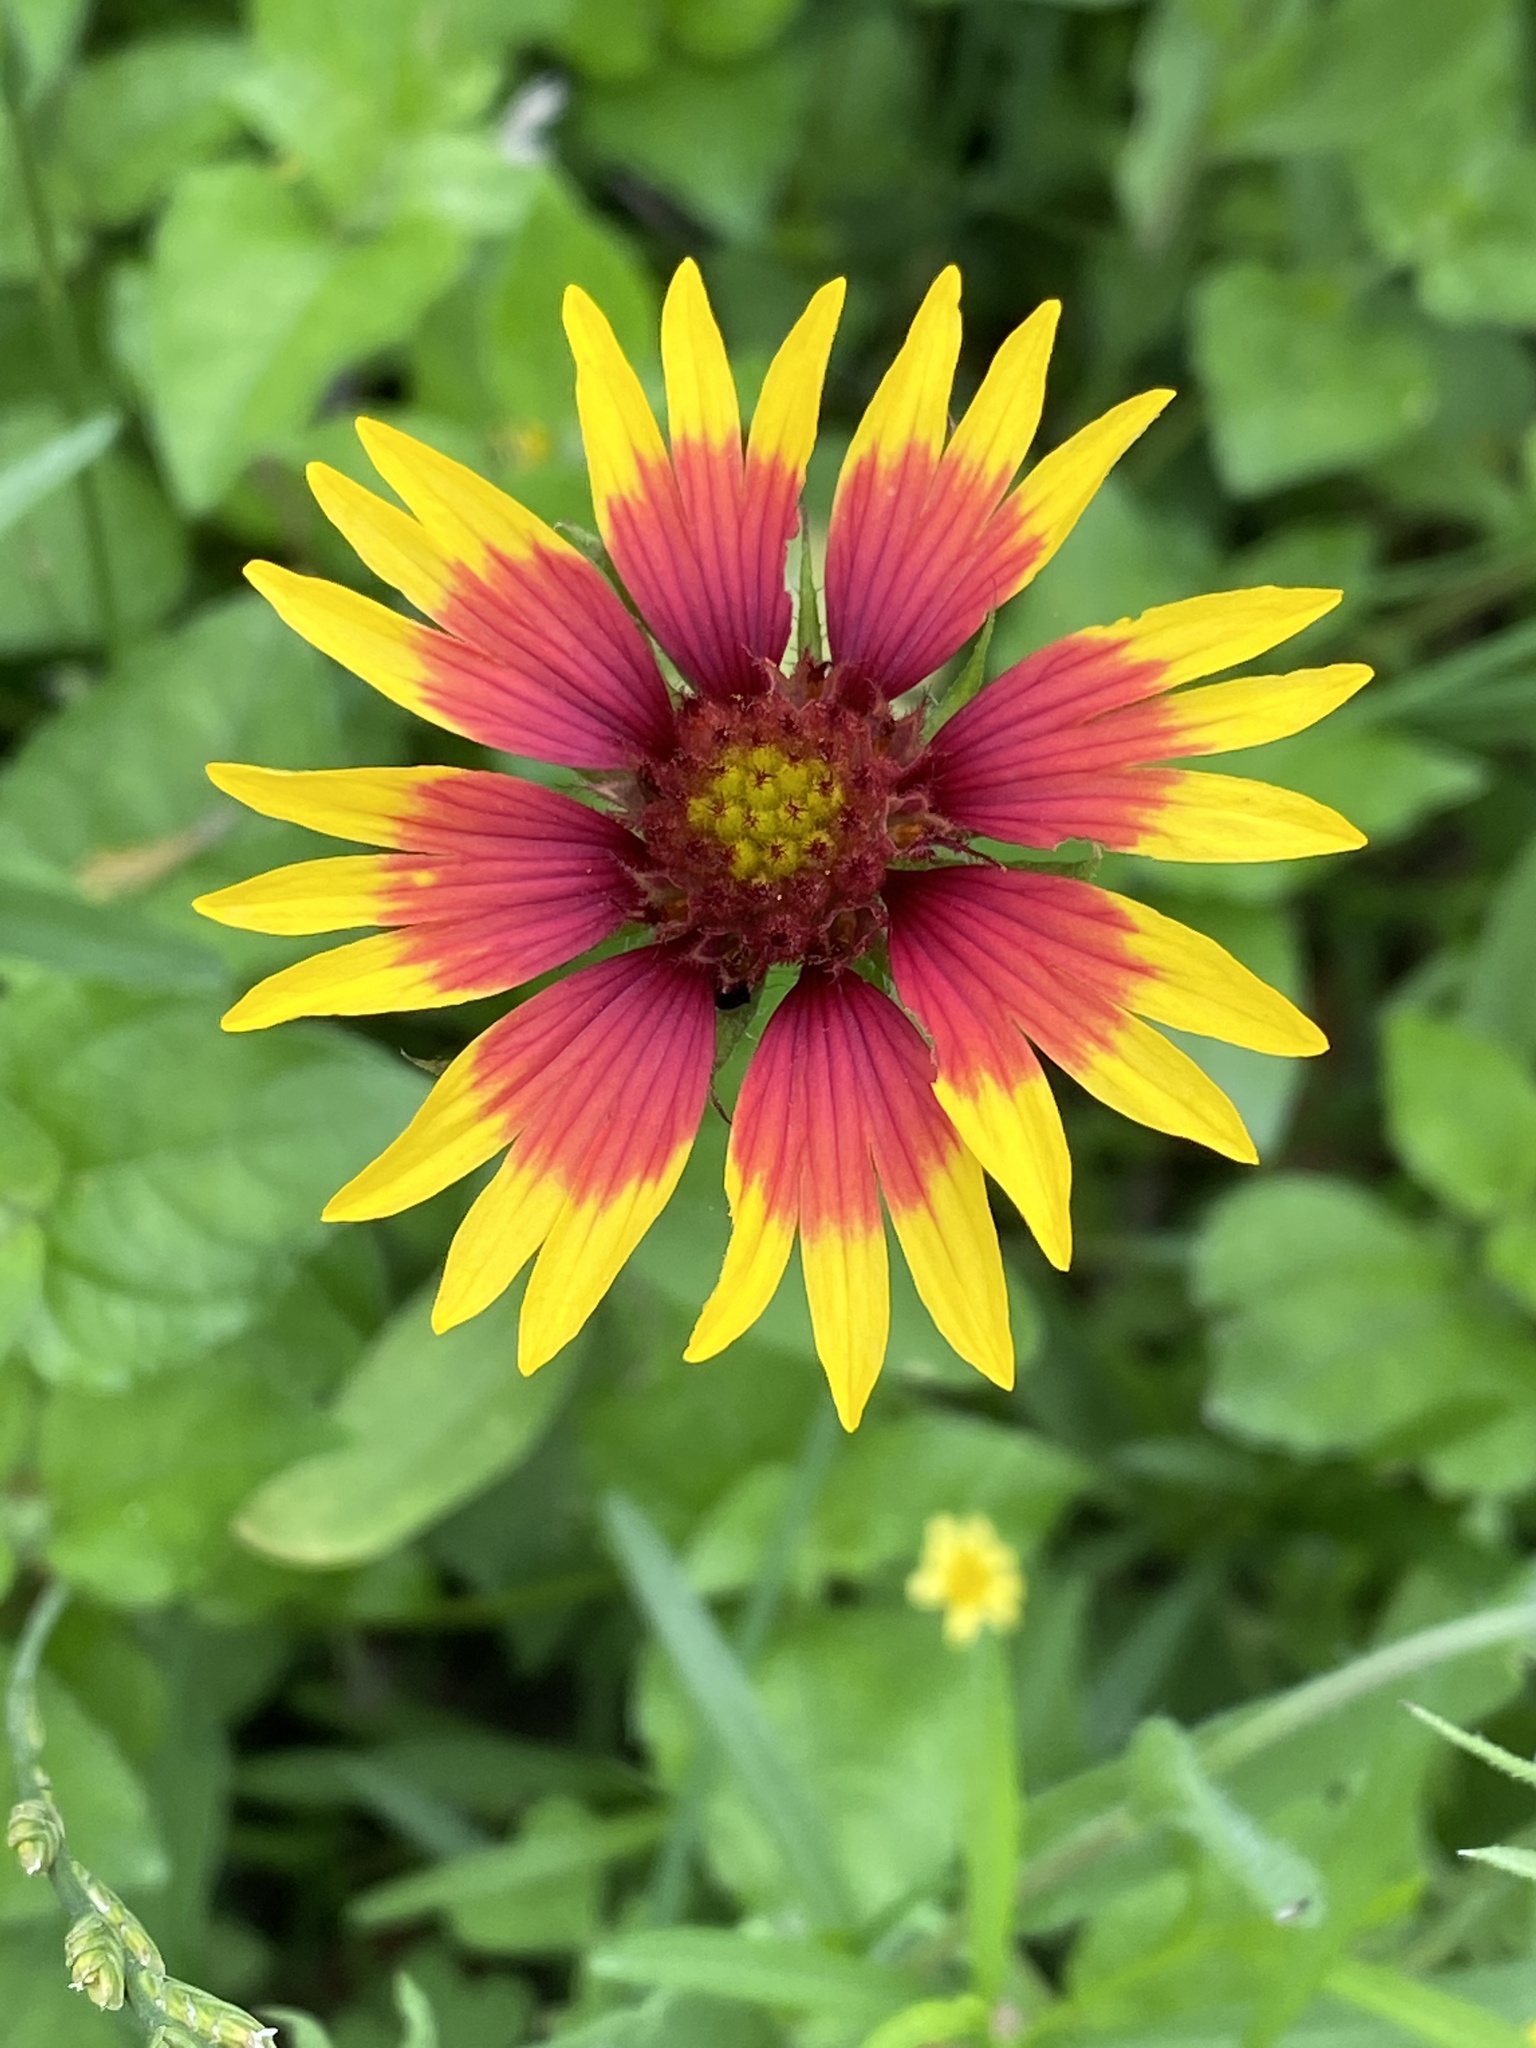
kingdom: Plantae
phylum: Tracheophyta
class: Magnoliopsida
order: Asterales
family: Asteraceae
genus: Gaillardia
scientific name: Gaillardia pulchella
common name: Firewheel
